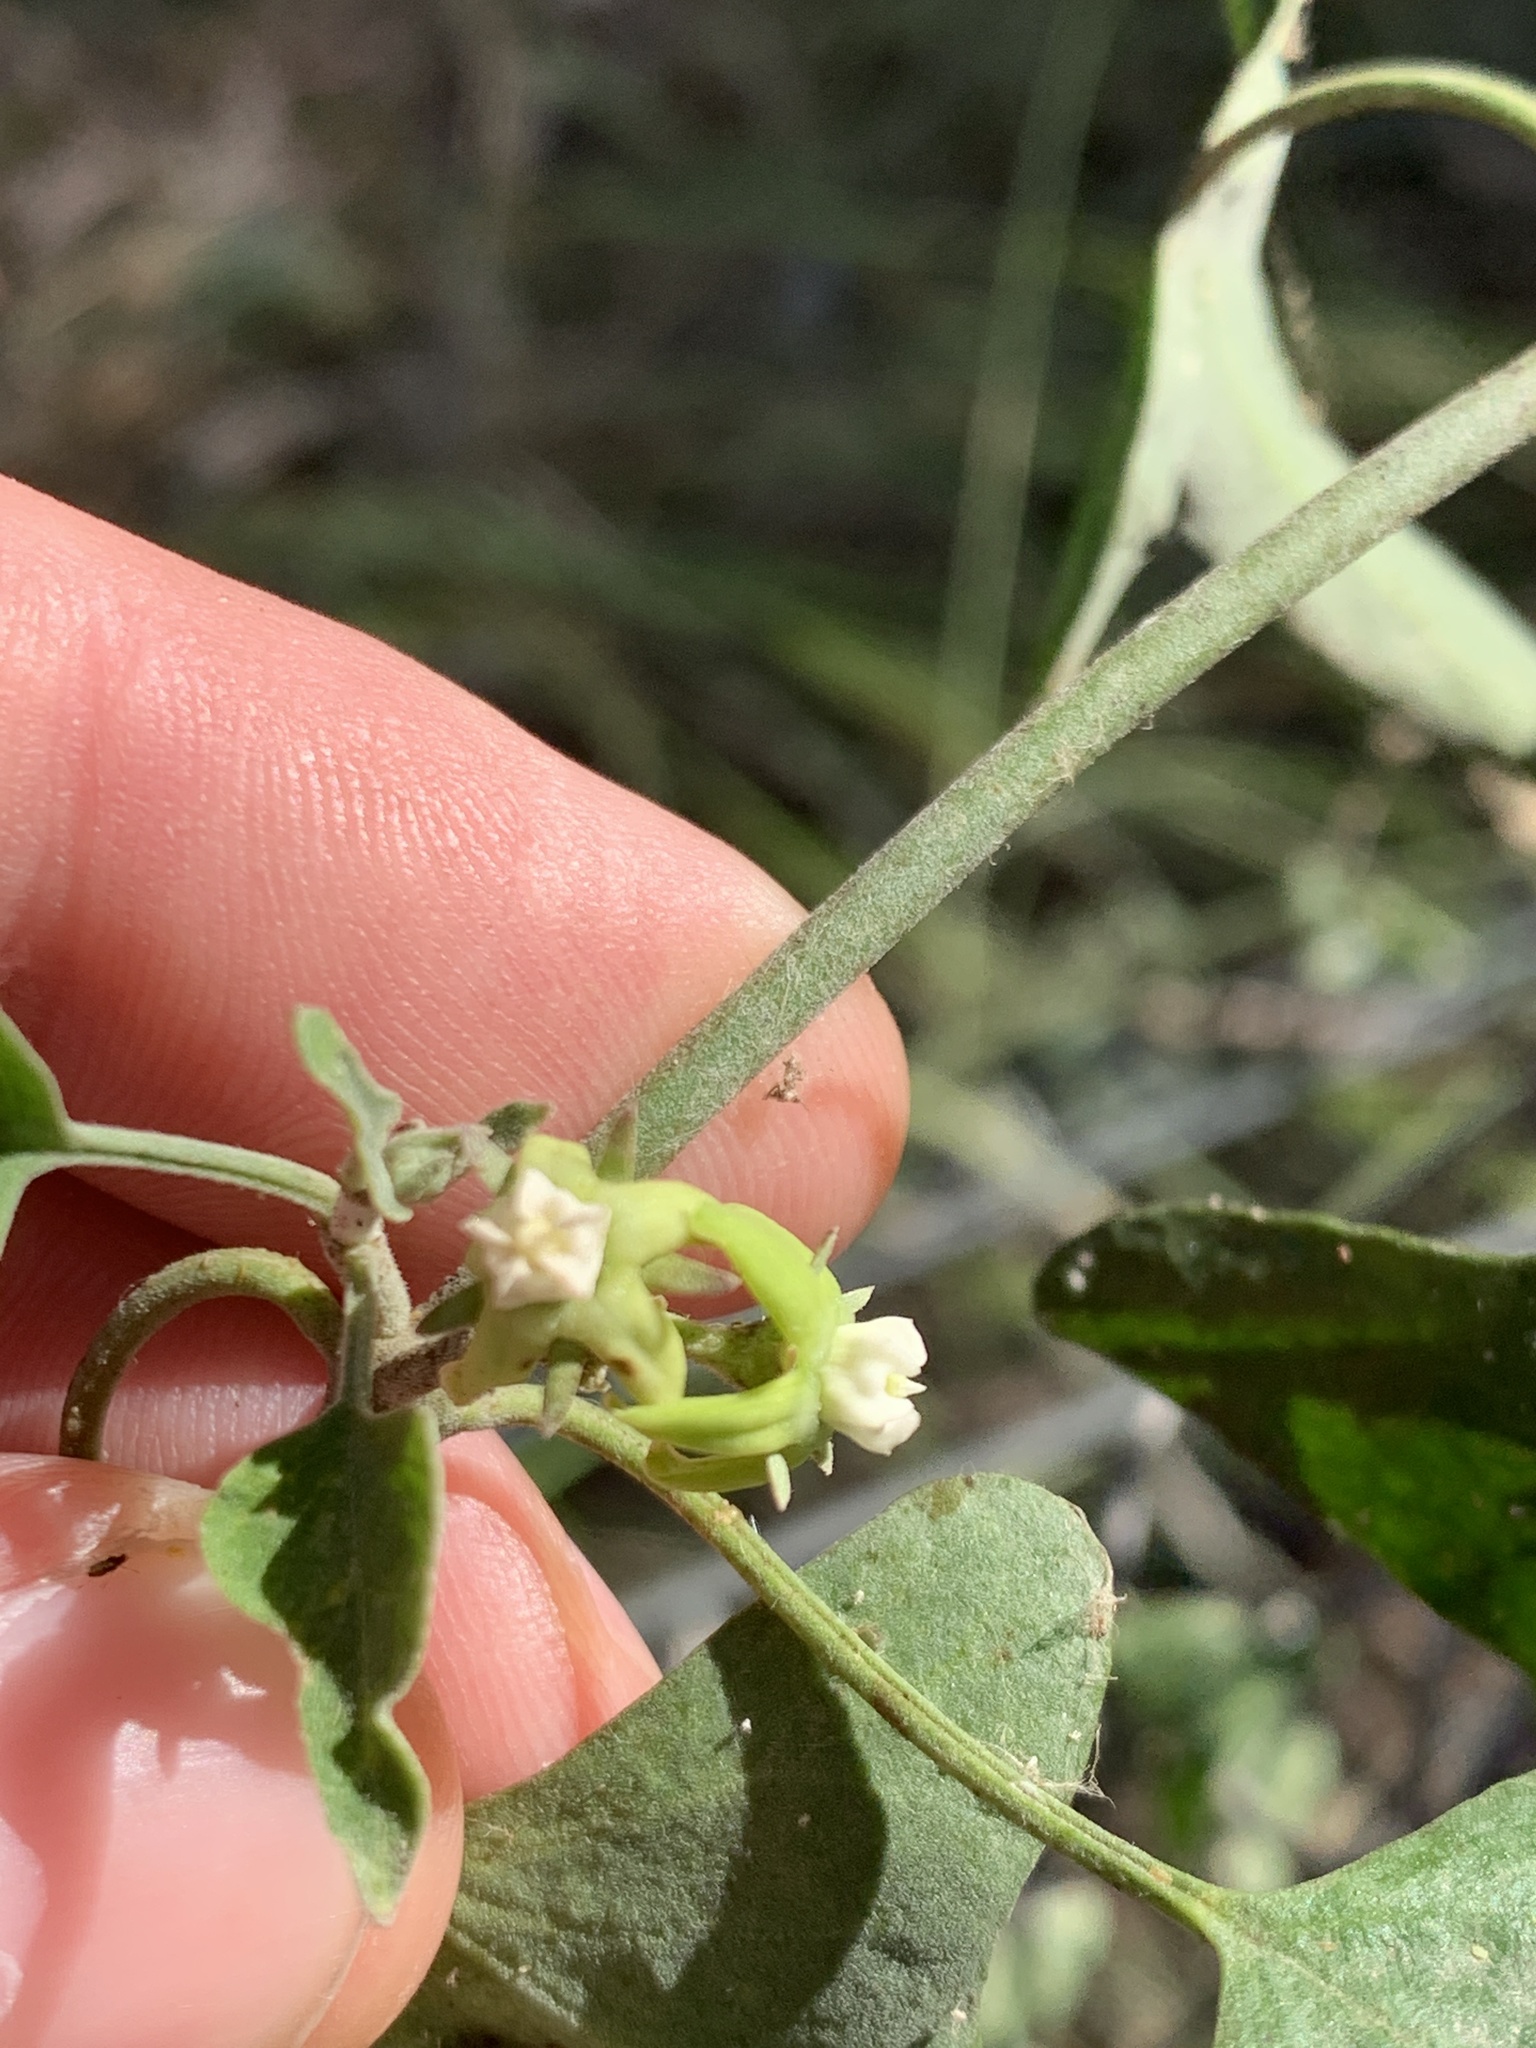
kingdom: Plantae
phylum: Tracheophyta
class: Magnoliopsida
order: Gentianales
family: Apocynaceae
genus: Araujia
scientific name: Araujia brachystephana
